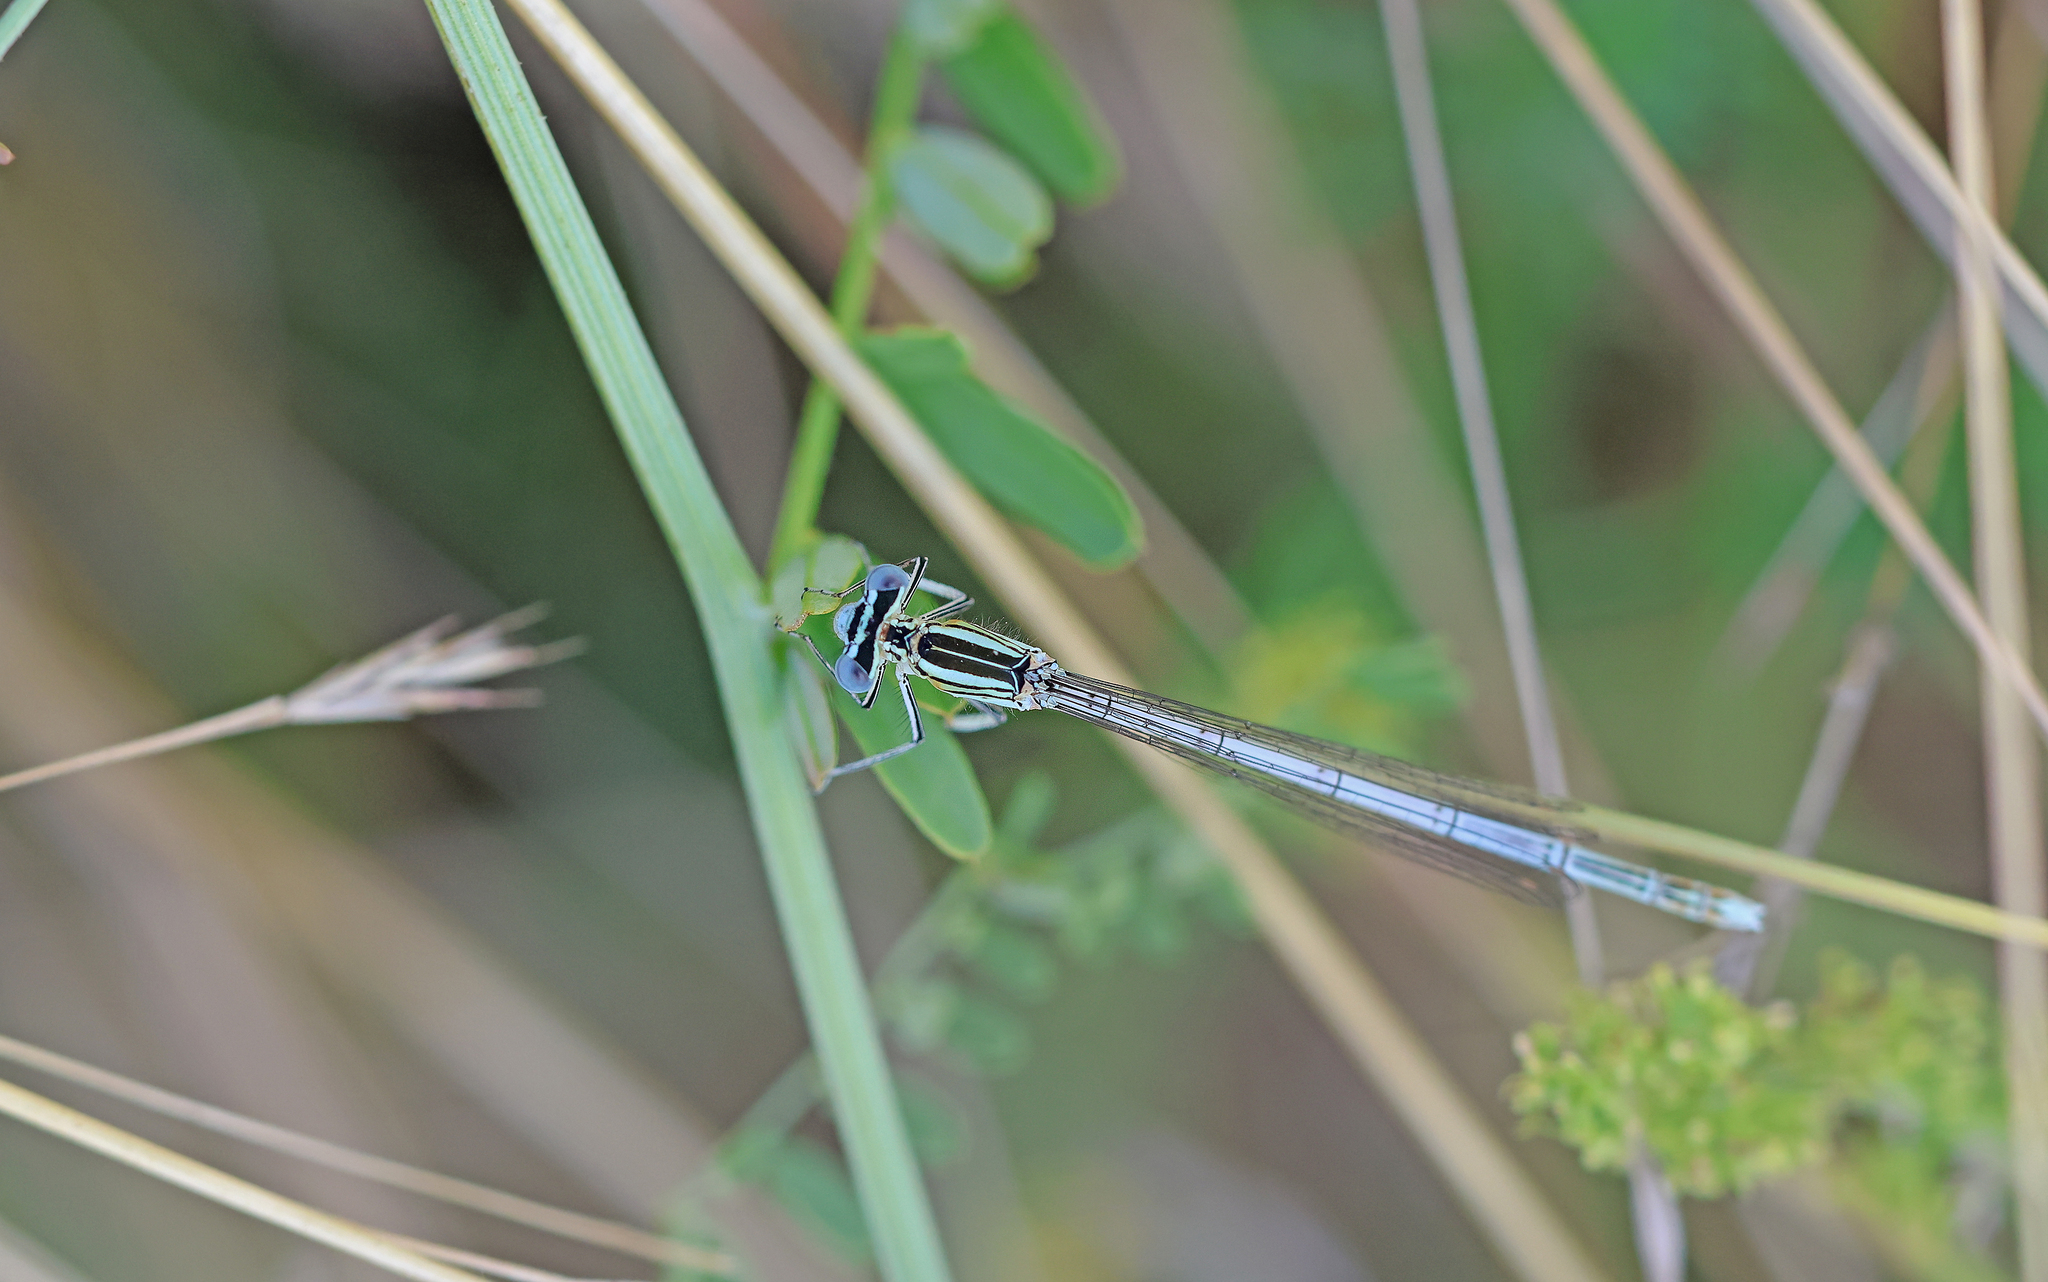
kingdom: Animalia
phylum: Arthropoda
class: Insecta
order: Odonata
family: Platycnemididae
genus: Platycnemis
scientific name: Platycnemis pennipes
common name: White-legged damselfly
